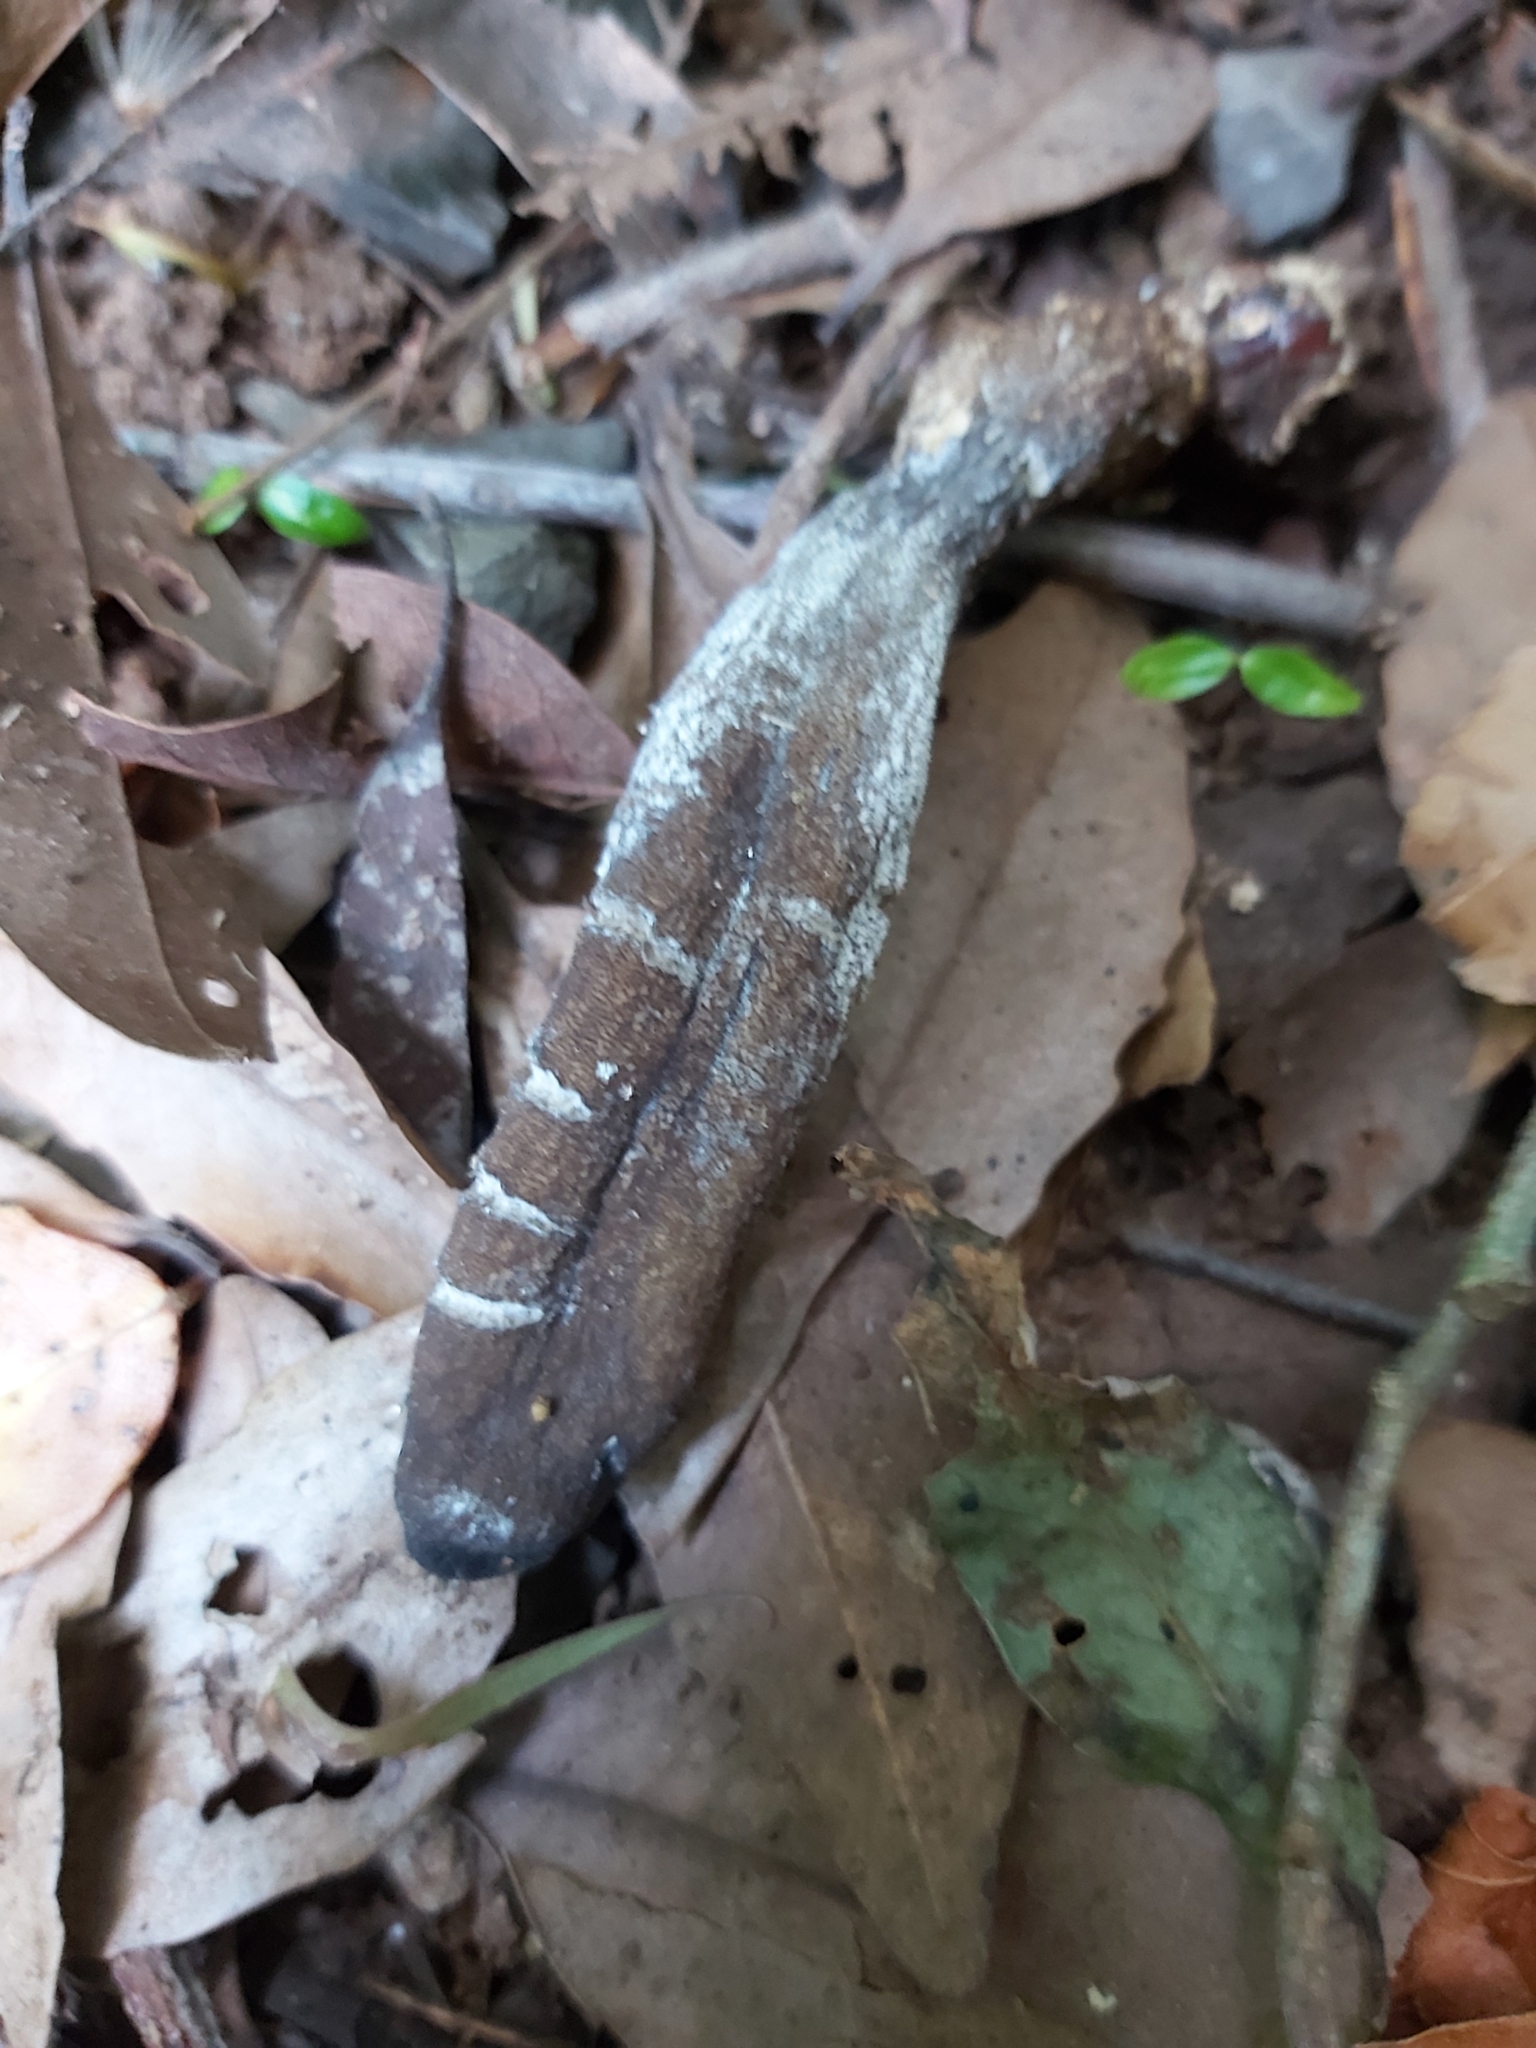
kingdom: Fungi
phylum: Ascomycota
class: Sordariomycetes
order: Hypocreales
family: Clavicipitaceae
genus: Drechmeria
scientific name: Drechmeria gunnii
